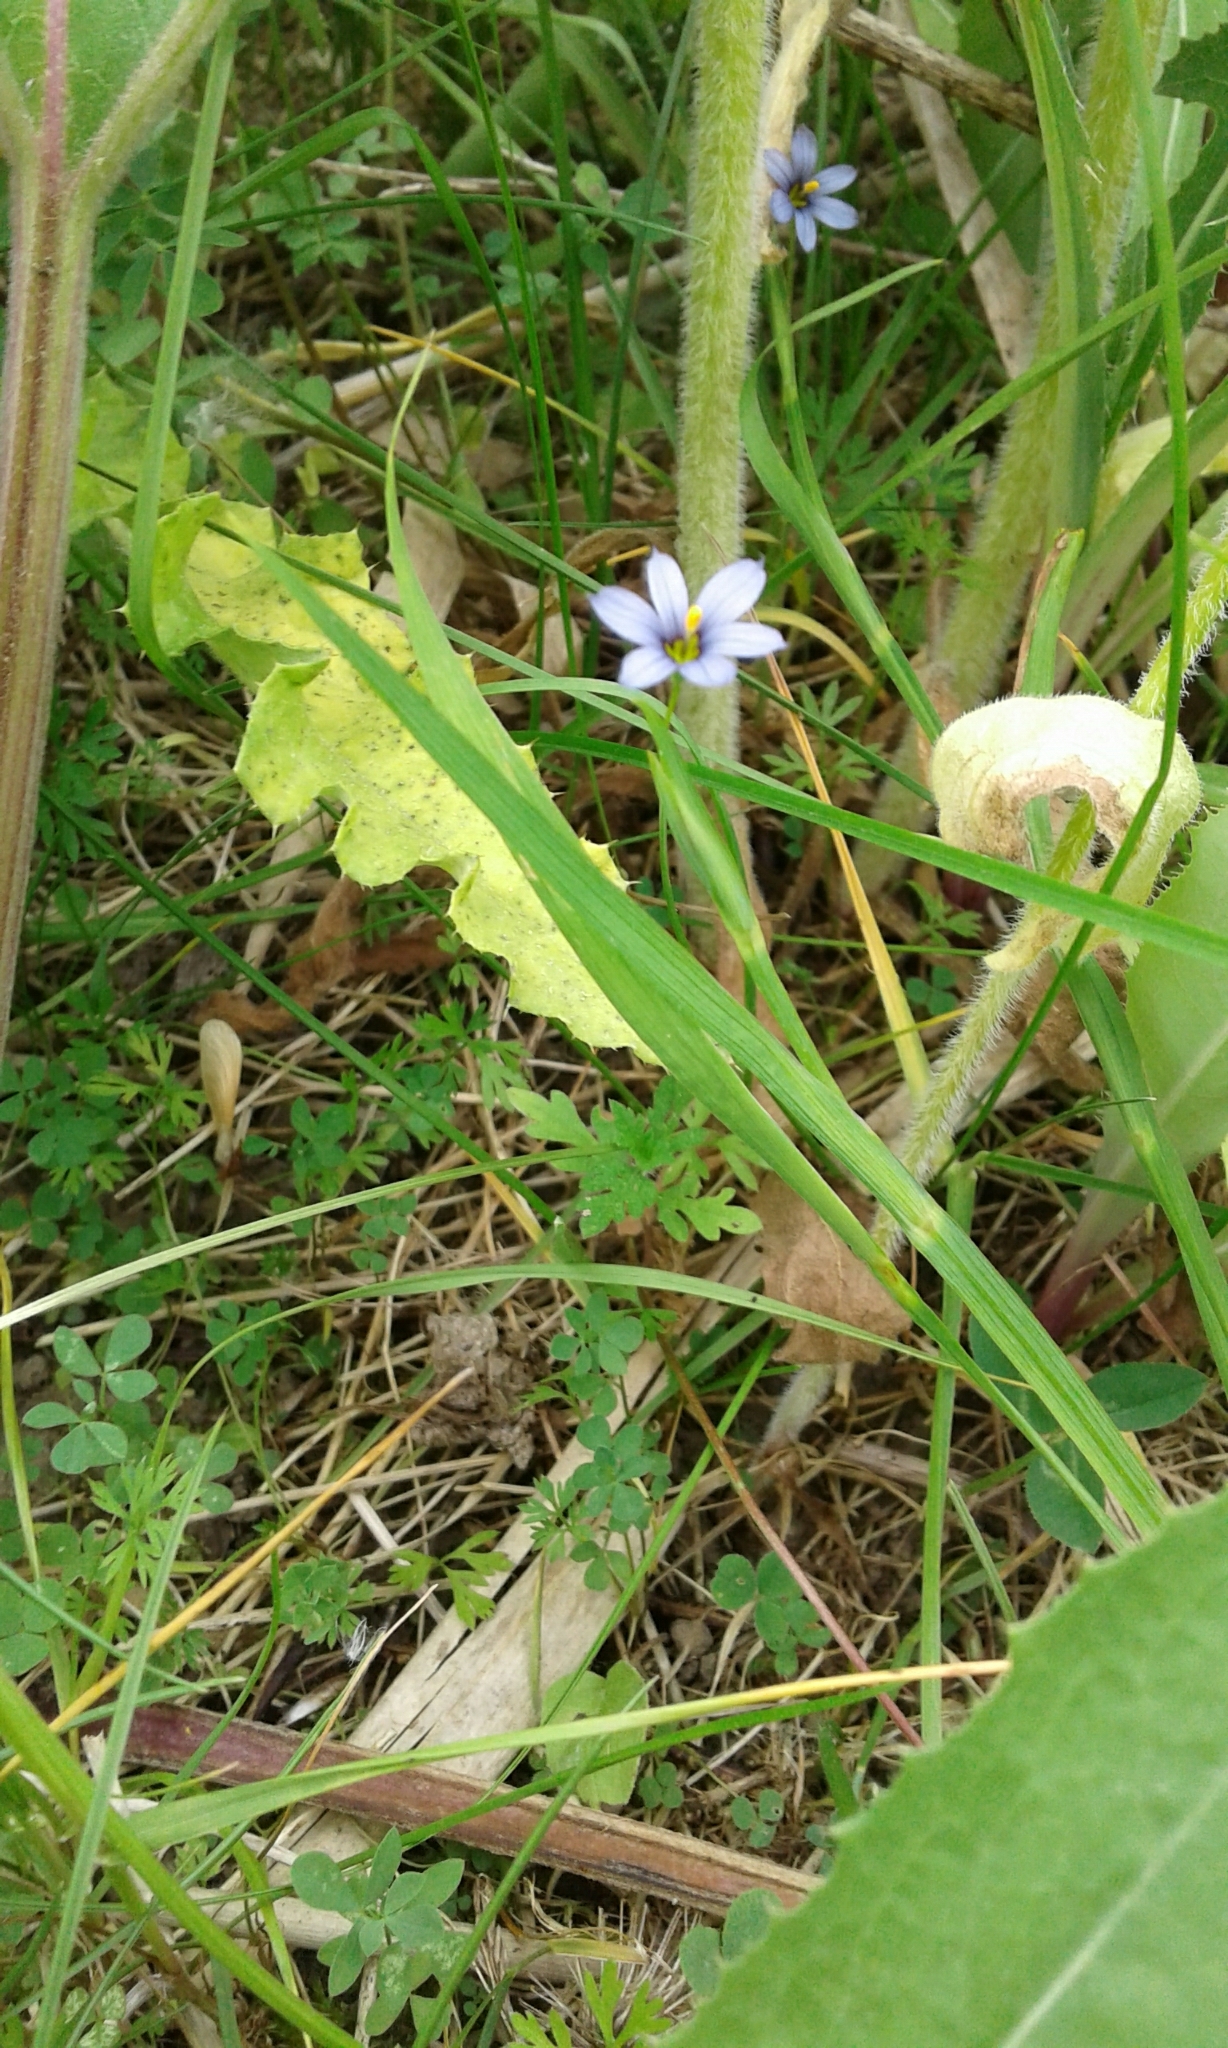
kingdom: Plantae
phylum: Tracheophyta
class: Liliopsida
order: Asparagales
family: Iridaceae
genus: Sisyrinchium
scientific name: Sisyrinchium angustifolium
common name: Narrow-leaf blue-eyed-grass
